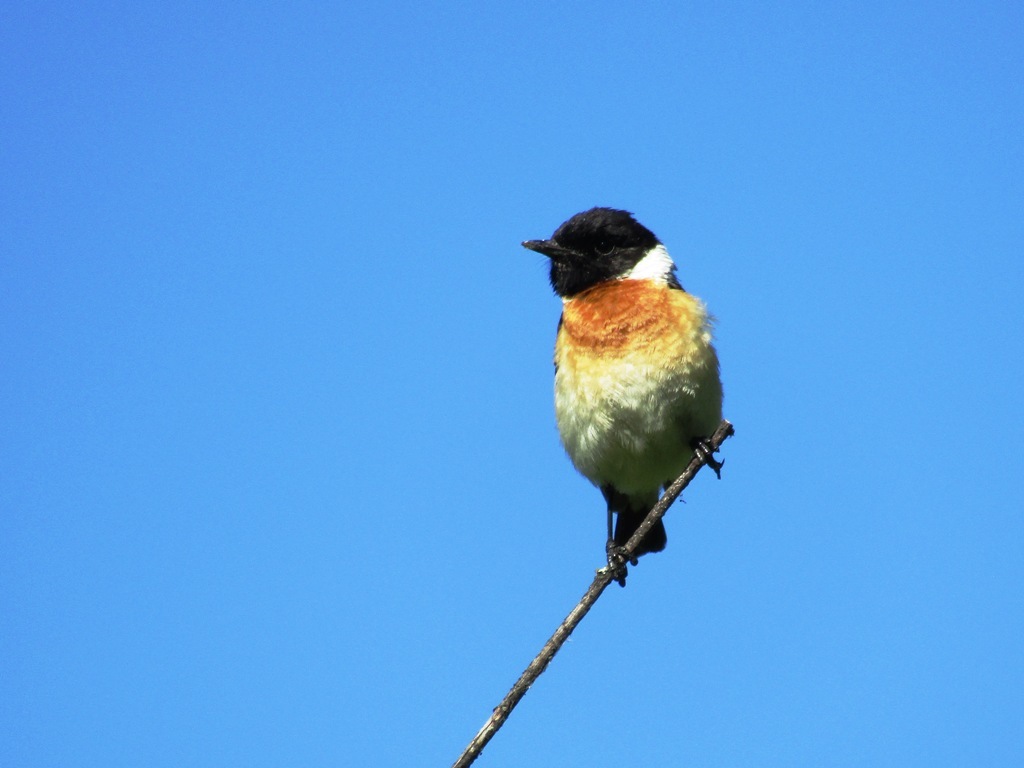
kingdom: Animalia
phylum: Chordata
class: Aves
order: Passeriformes
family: Muscicapidae
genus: Saxicola
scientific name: Saxicola maurus
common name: Siberian stonechat
